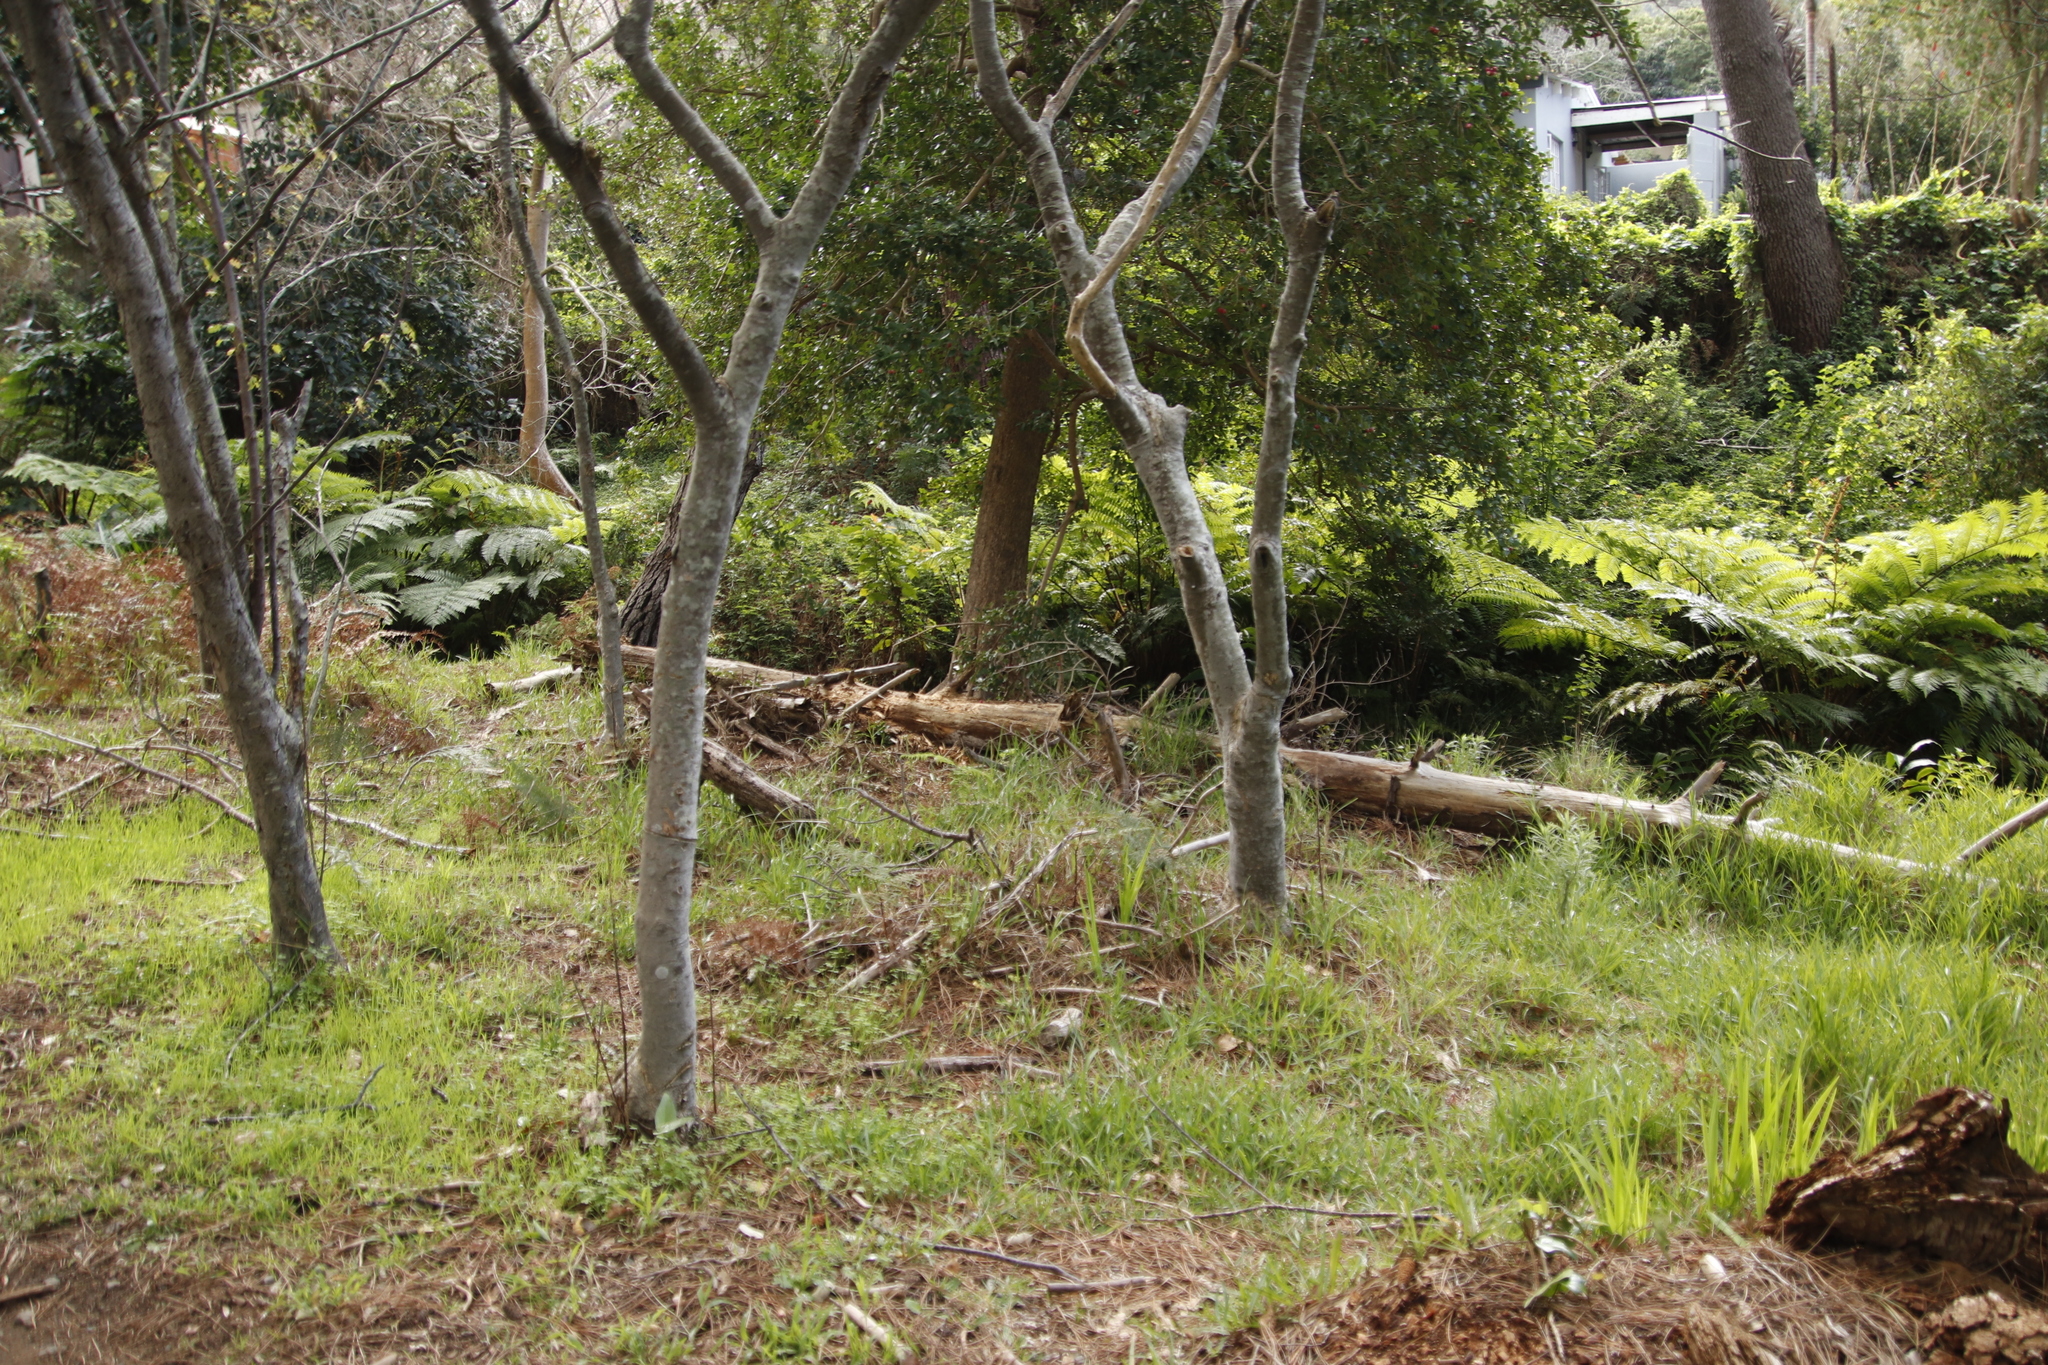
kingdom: Plantae
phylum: Tracheophyta
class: Polypodiopsida
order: Cyatheales
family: Cyatheaceae
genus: Sphaeropteris
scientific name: Sphaeropteris cooperi
